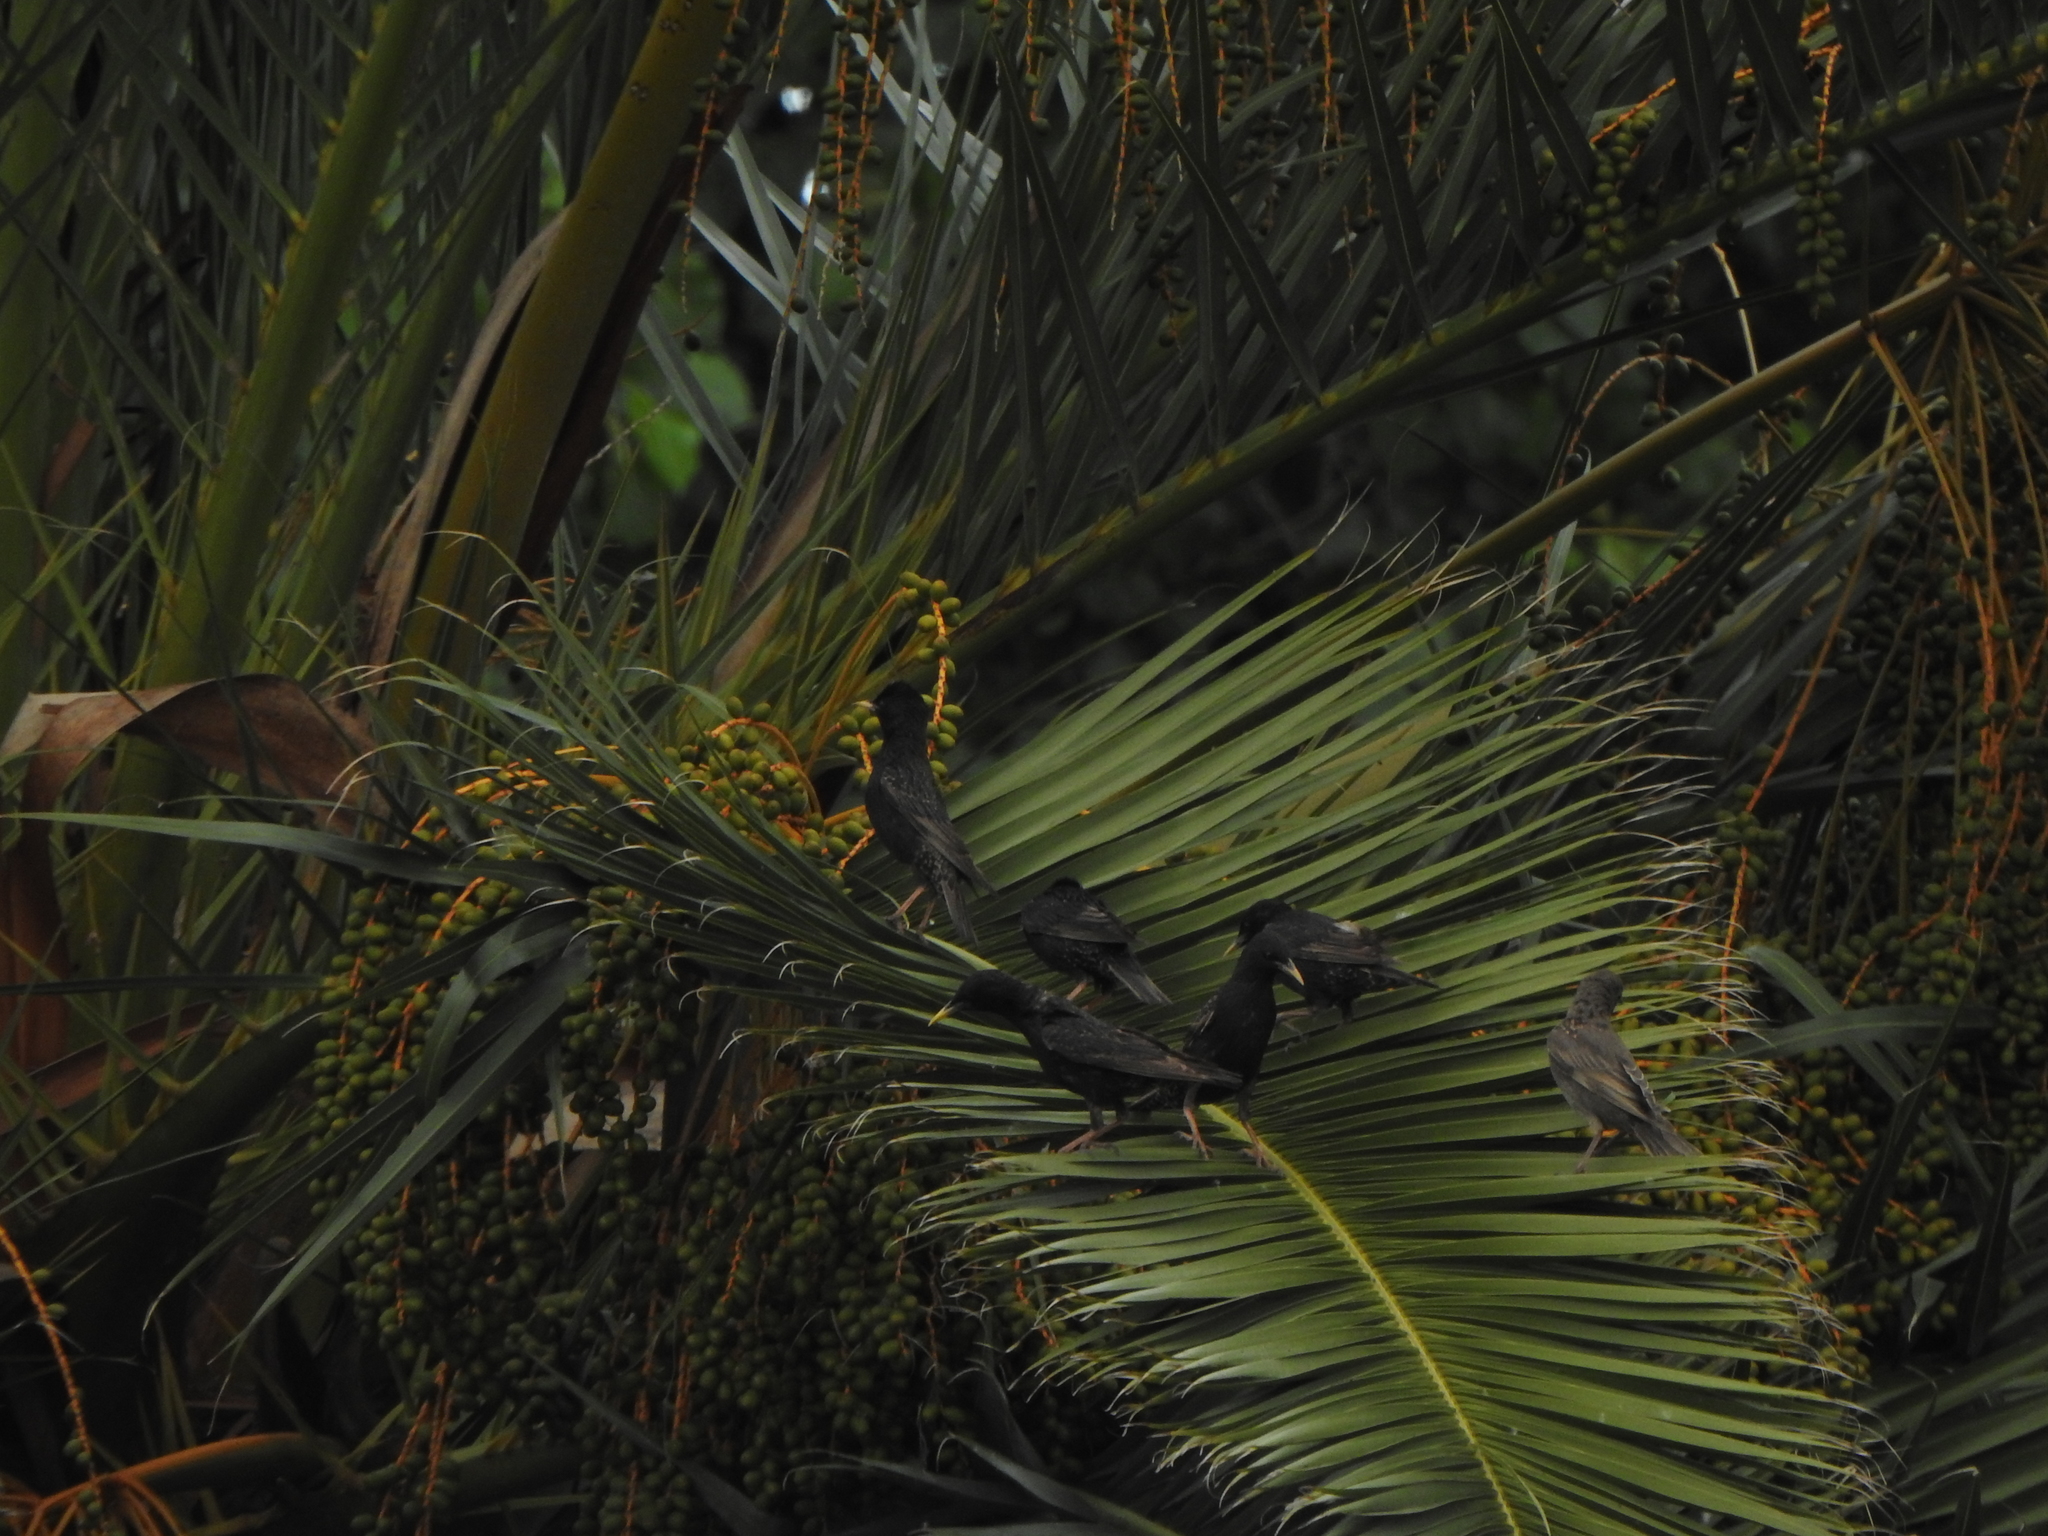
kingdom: Animalia
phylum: Chordata
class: Aves
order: Passeriformes
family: Sturnidae
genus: Sturnus
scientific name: Sturnus vulgaris
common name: Common starling
